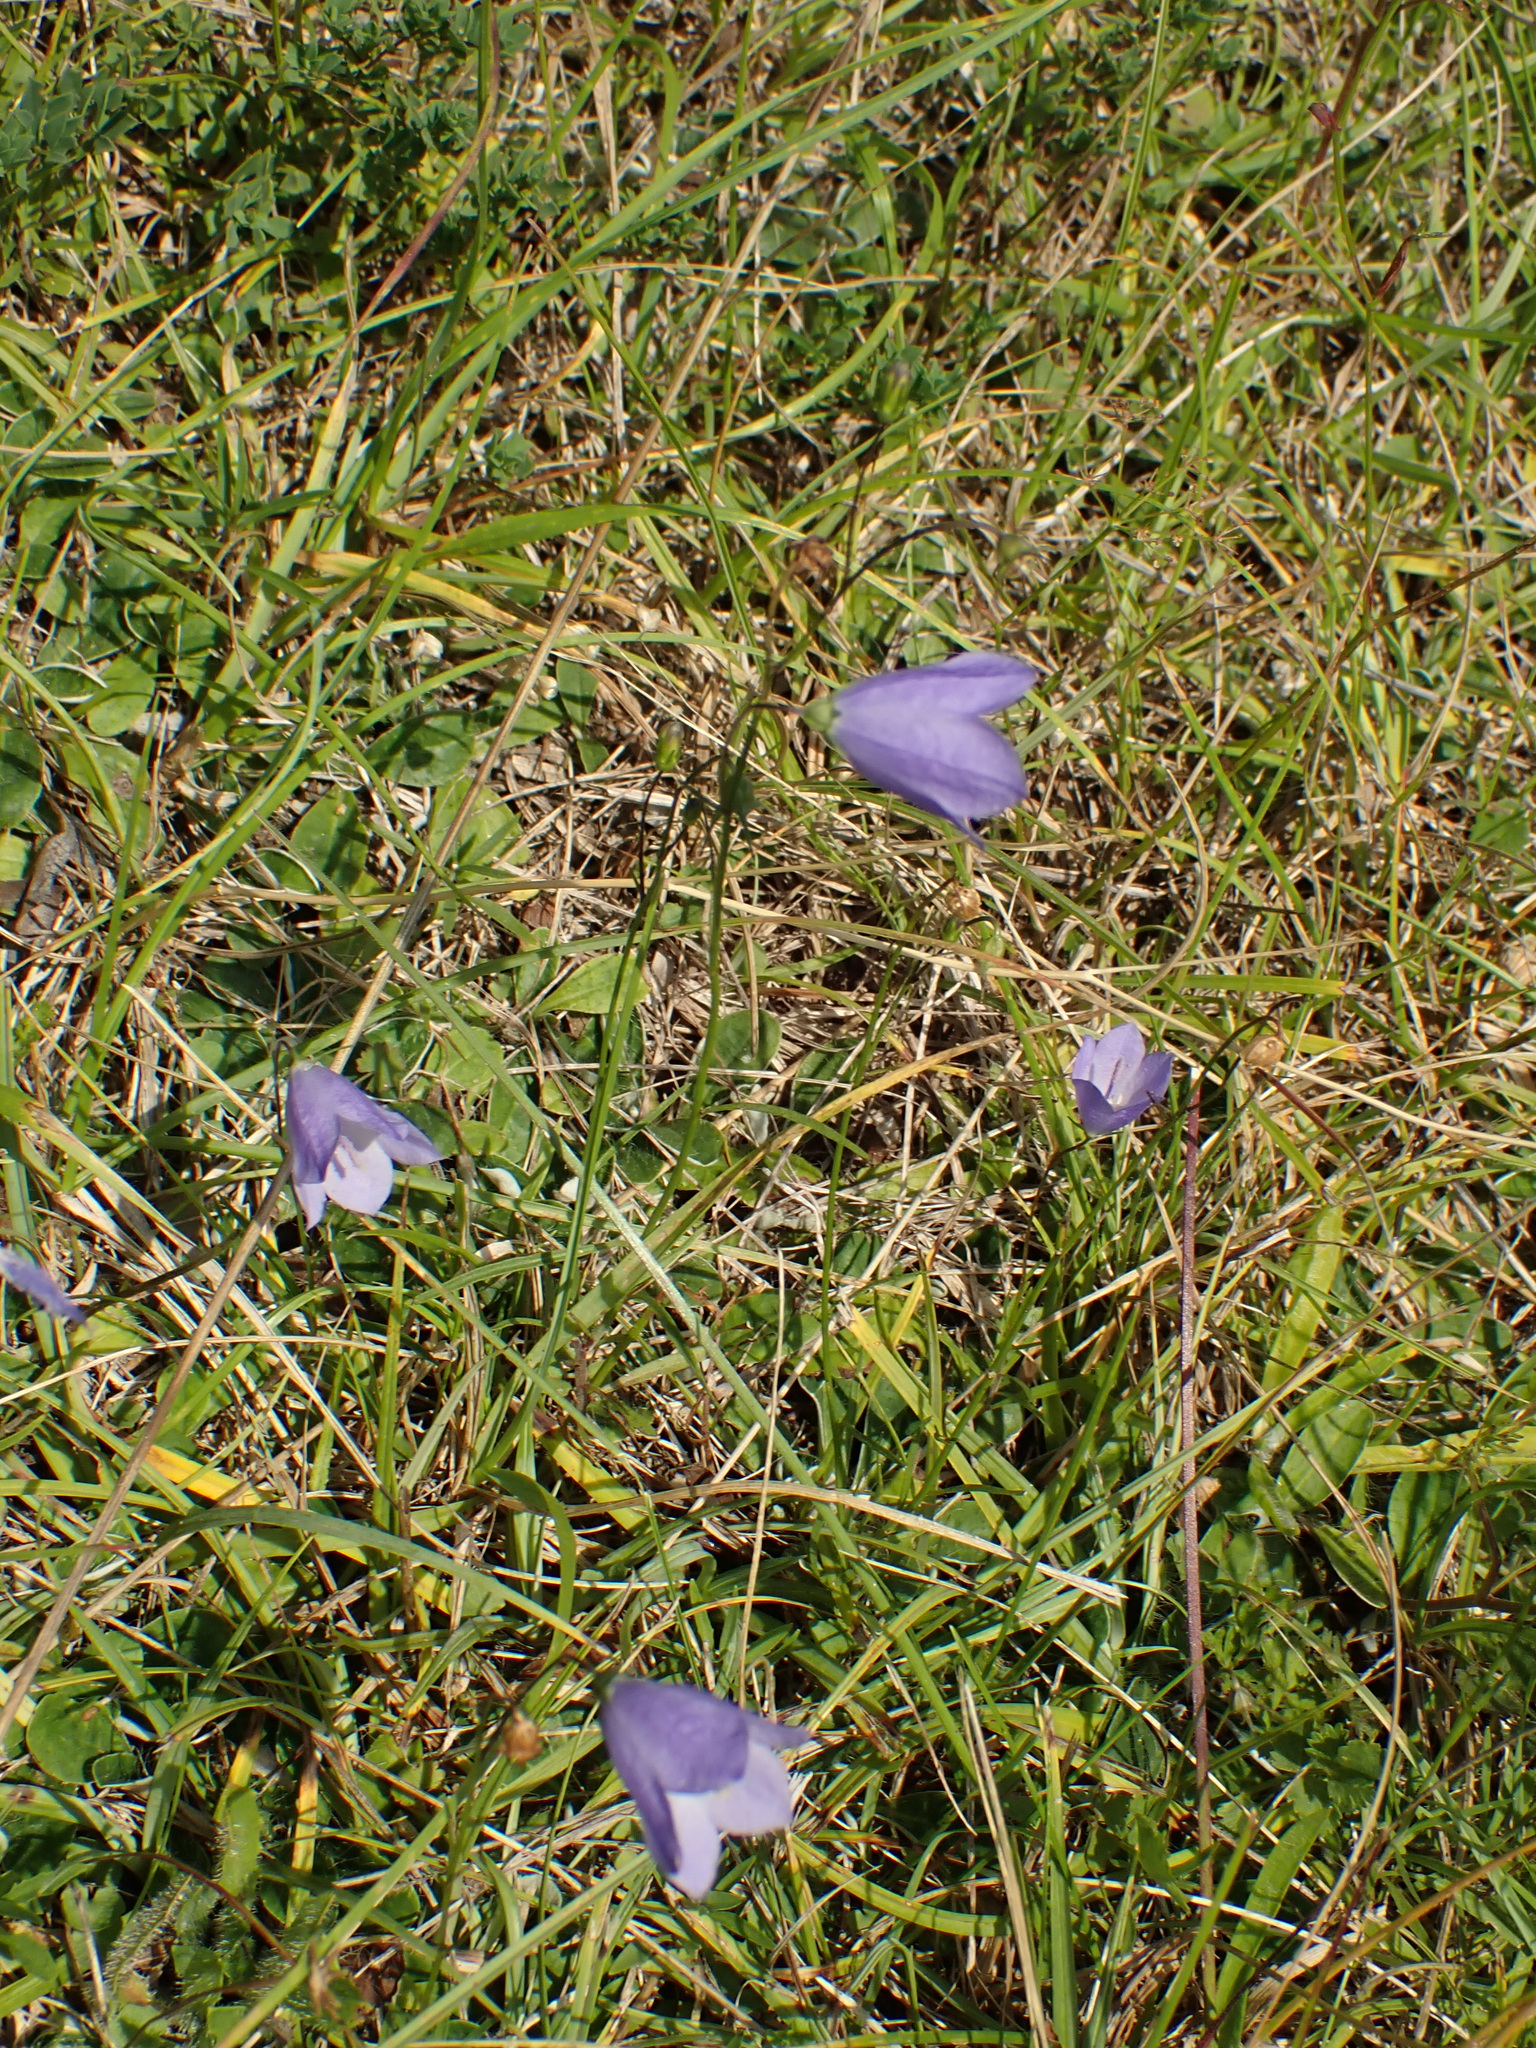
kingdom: Plantae
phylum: Tracheophyta
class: Magnoliopsida
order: Asterales
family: Campanulaceae
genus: Campanula
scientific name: Campanula rotundifolia
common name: Harebell
